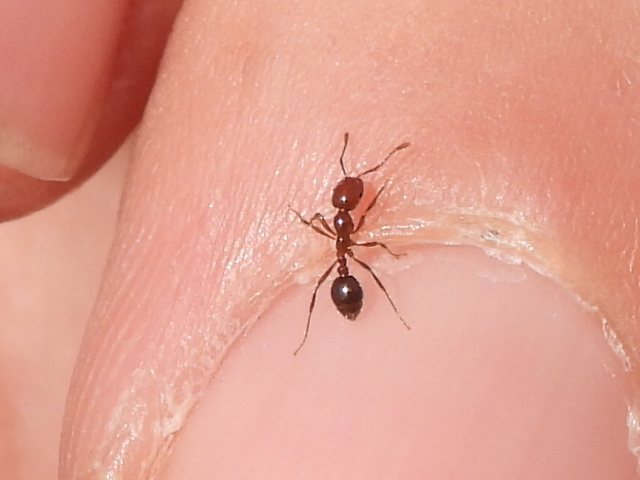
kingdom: Animalia
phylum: Arthropoda
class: Insecta
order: Hymenoptera
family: Formicidae
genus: Solenopsis
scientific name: Solenopsis invicta
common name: Red imported fire ant
